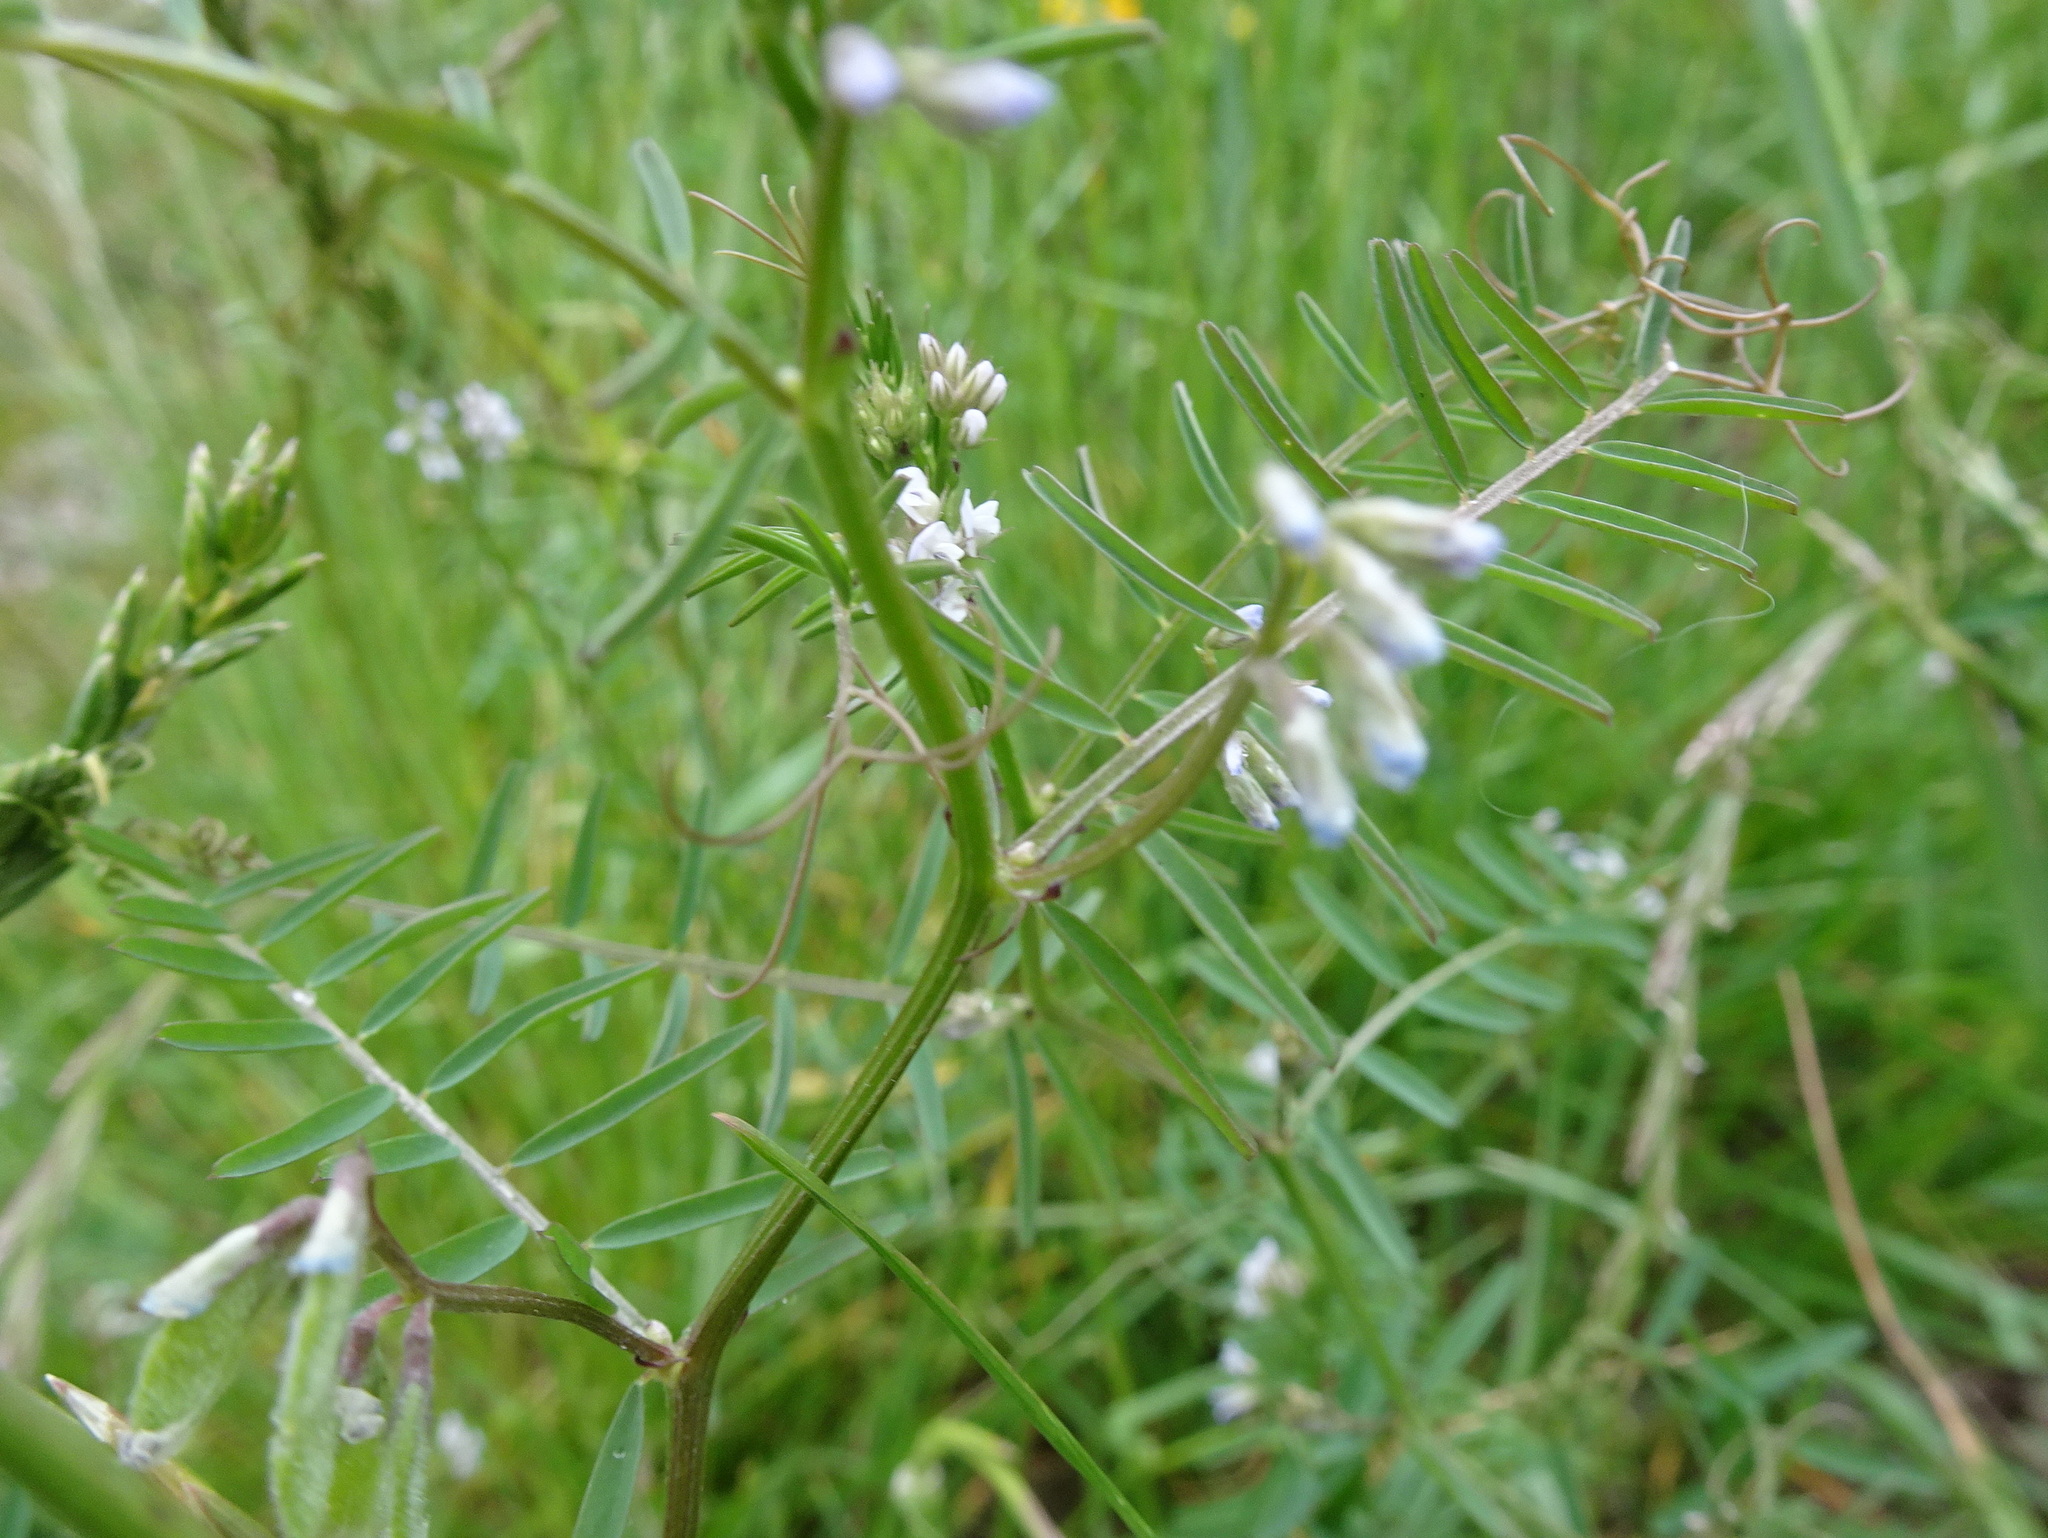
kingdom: Plantae
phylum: Tracheophyta
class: Magnoliopsida
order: Fabales
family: Fabaceae
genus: Vicia
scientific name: Vicia hirsuta
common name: Tiny vetch
